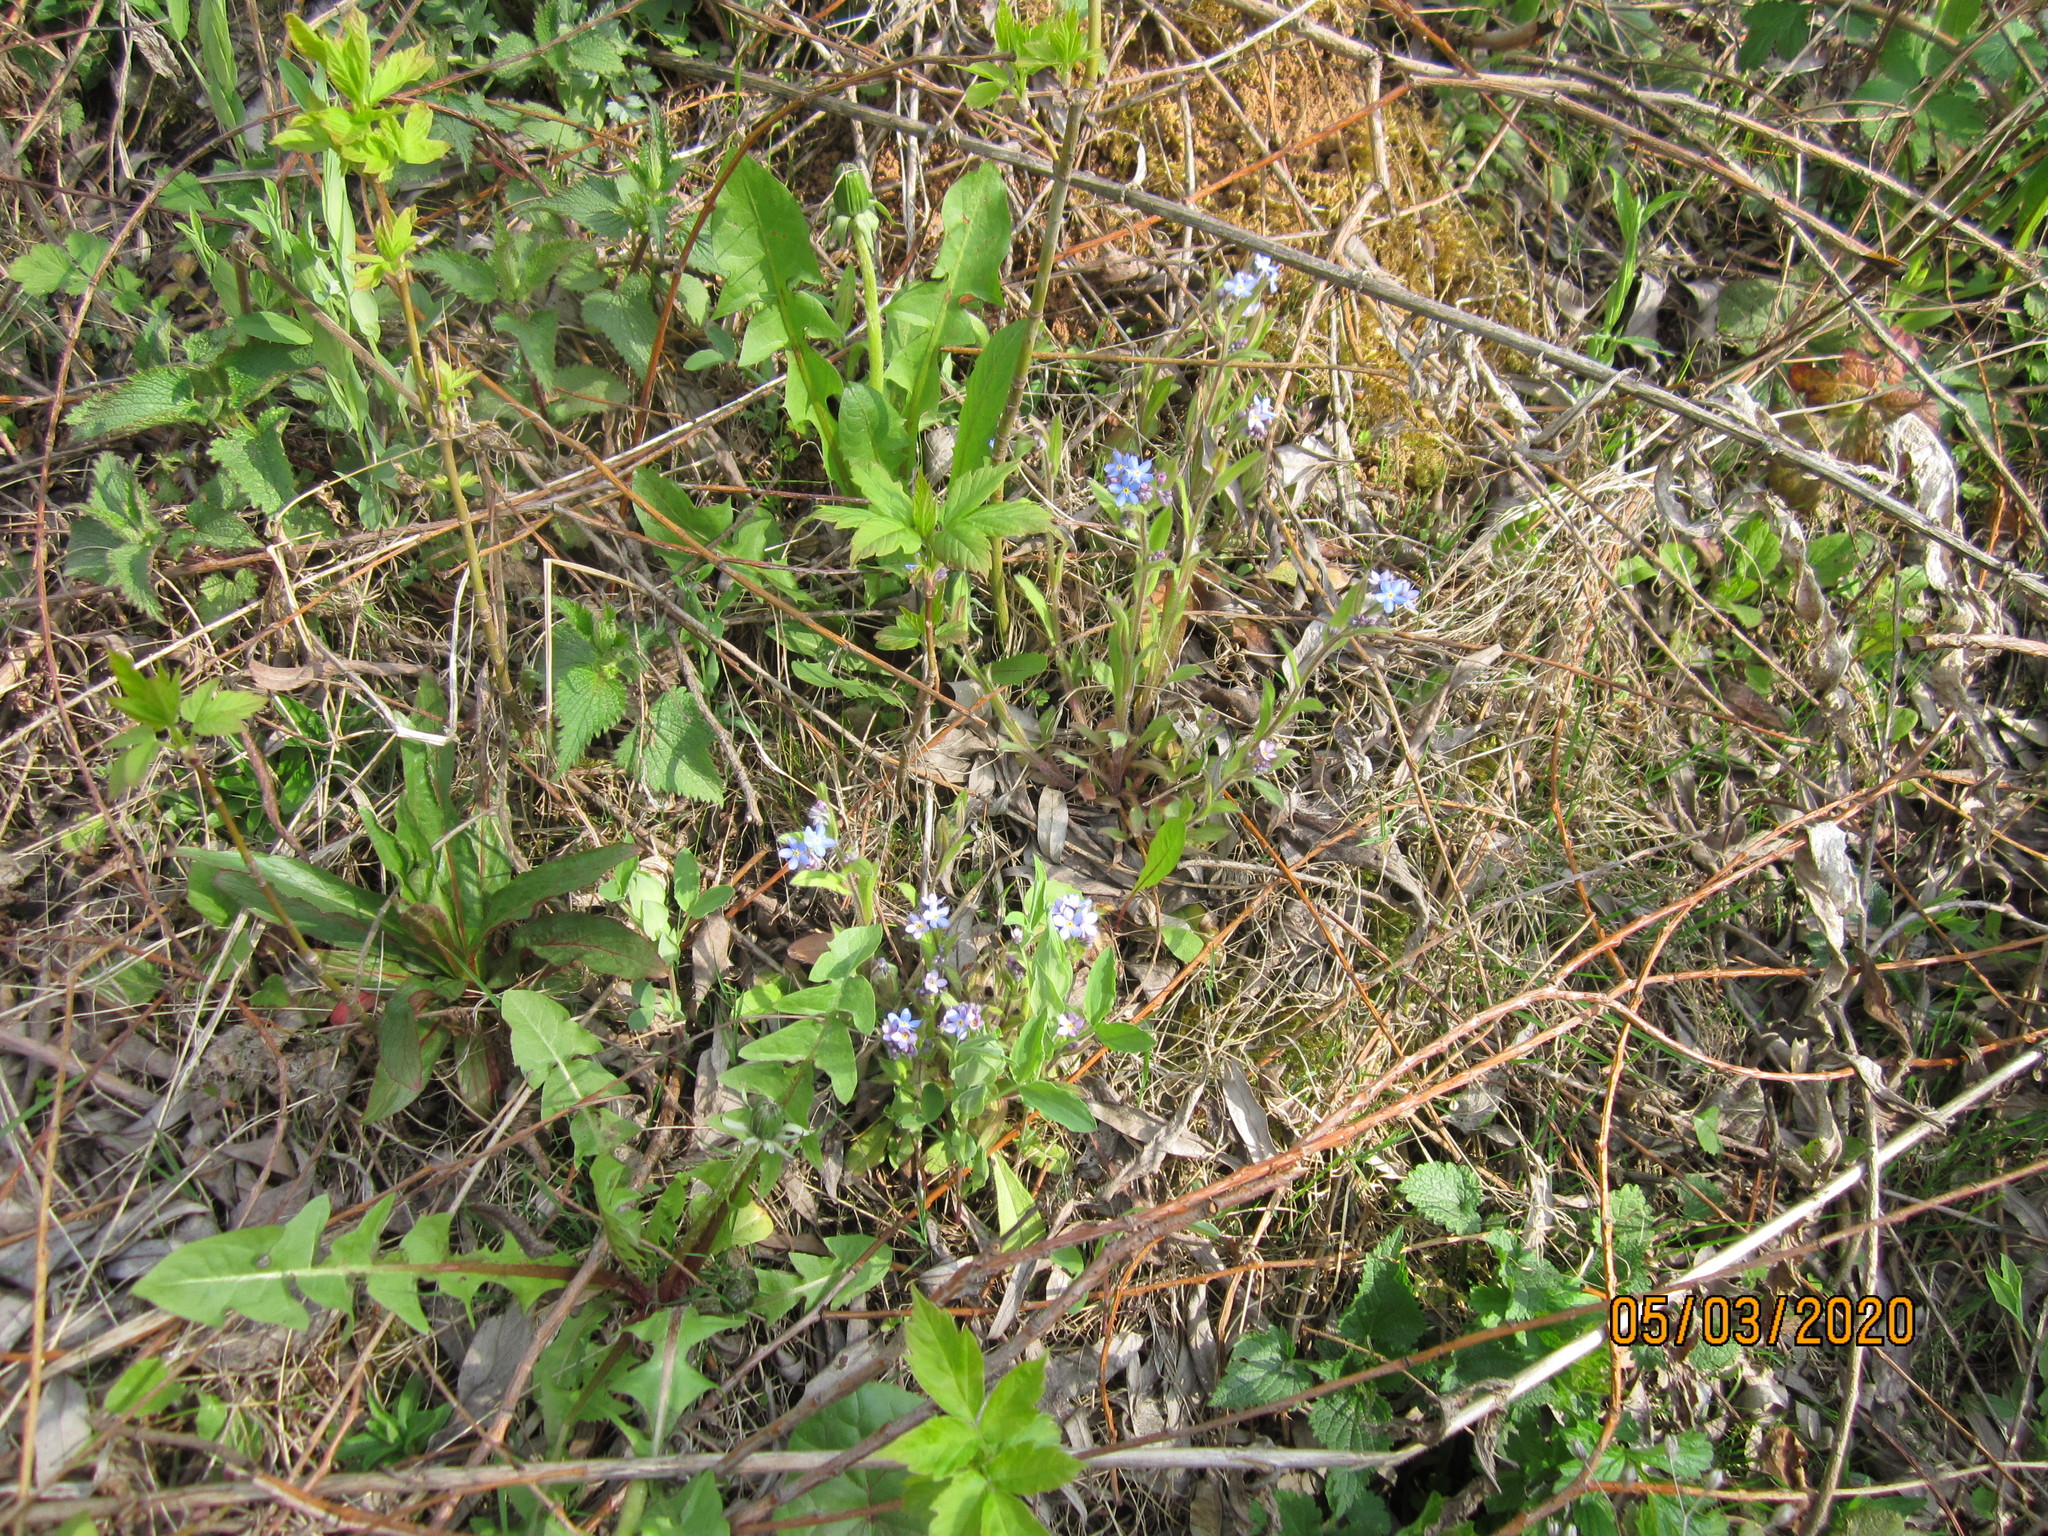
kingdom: Plantae
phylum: Tracheophyta
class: Magnoliopsida
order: Boraginales
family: Boraginaceae
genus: Myosotis
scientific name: Myosotis sylvatica
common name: Wood forget-me-not
